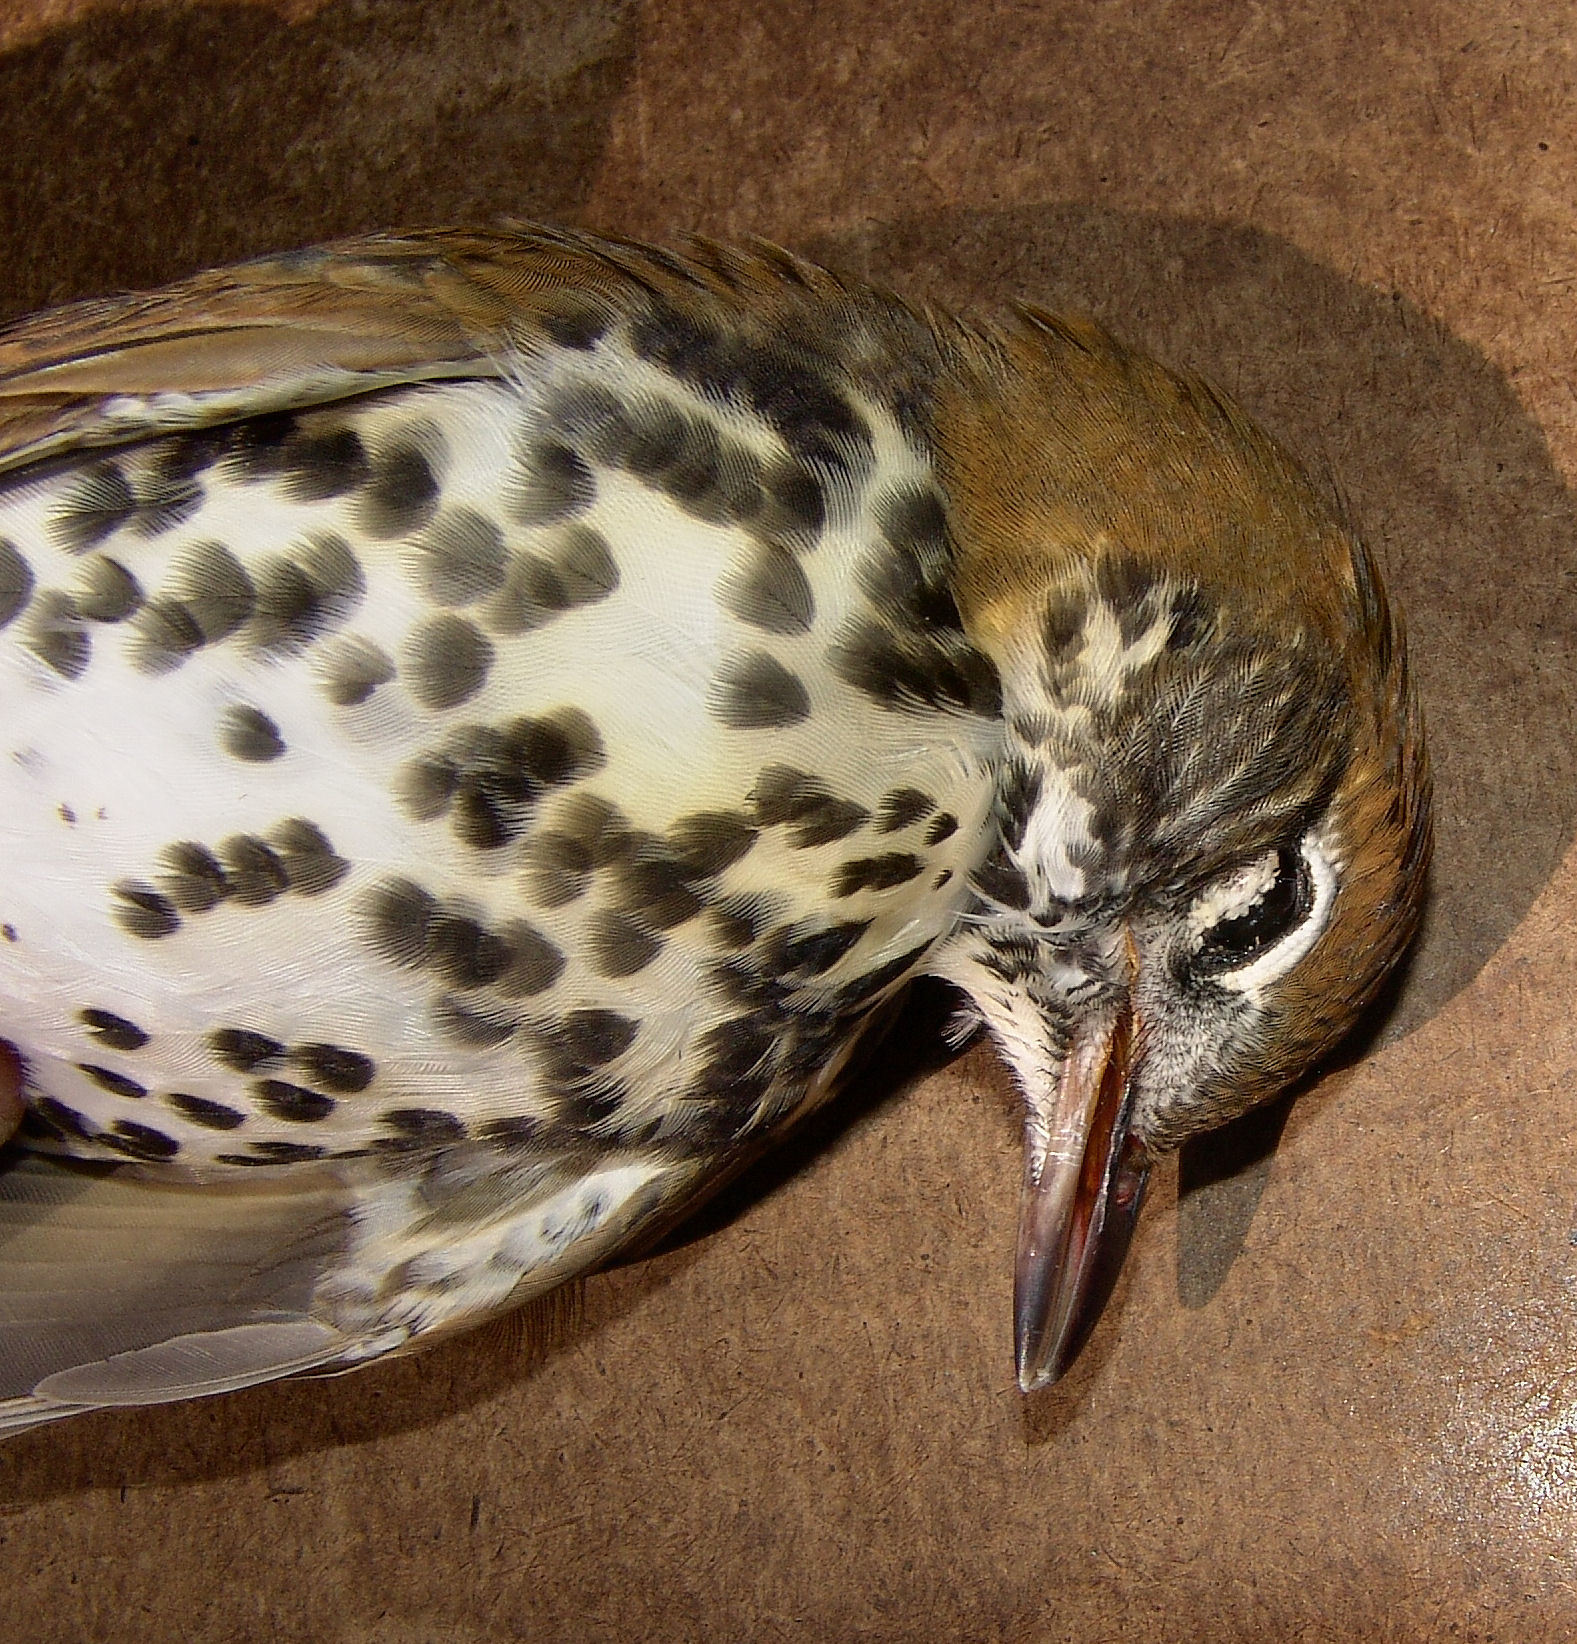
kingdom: Animalia
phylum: Chordata
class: Aves
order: Passeriformes
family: Turdidae
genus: Hylocichla
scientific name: Hylocichla mustelina
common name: Wood thrush
